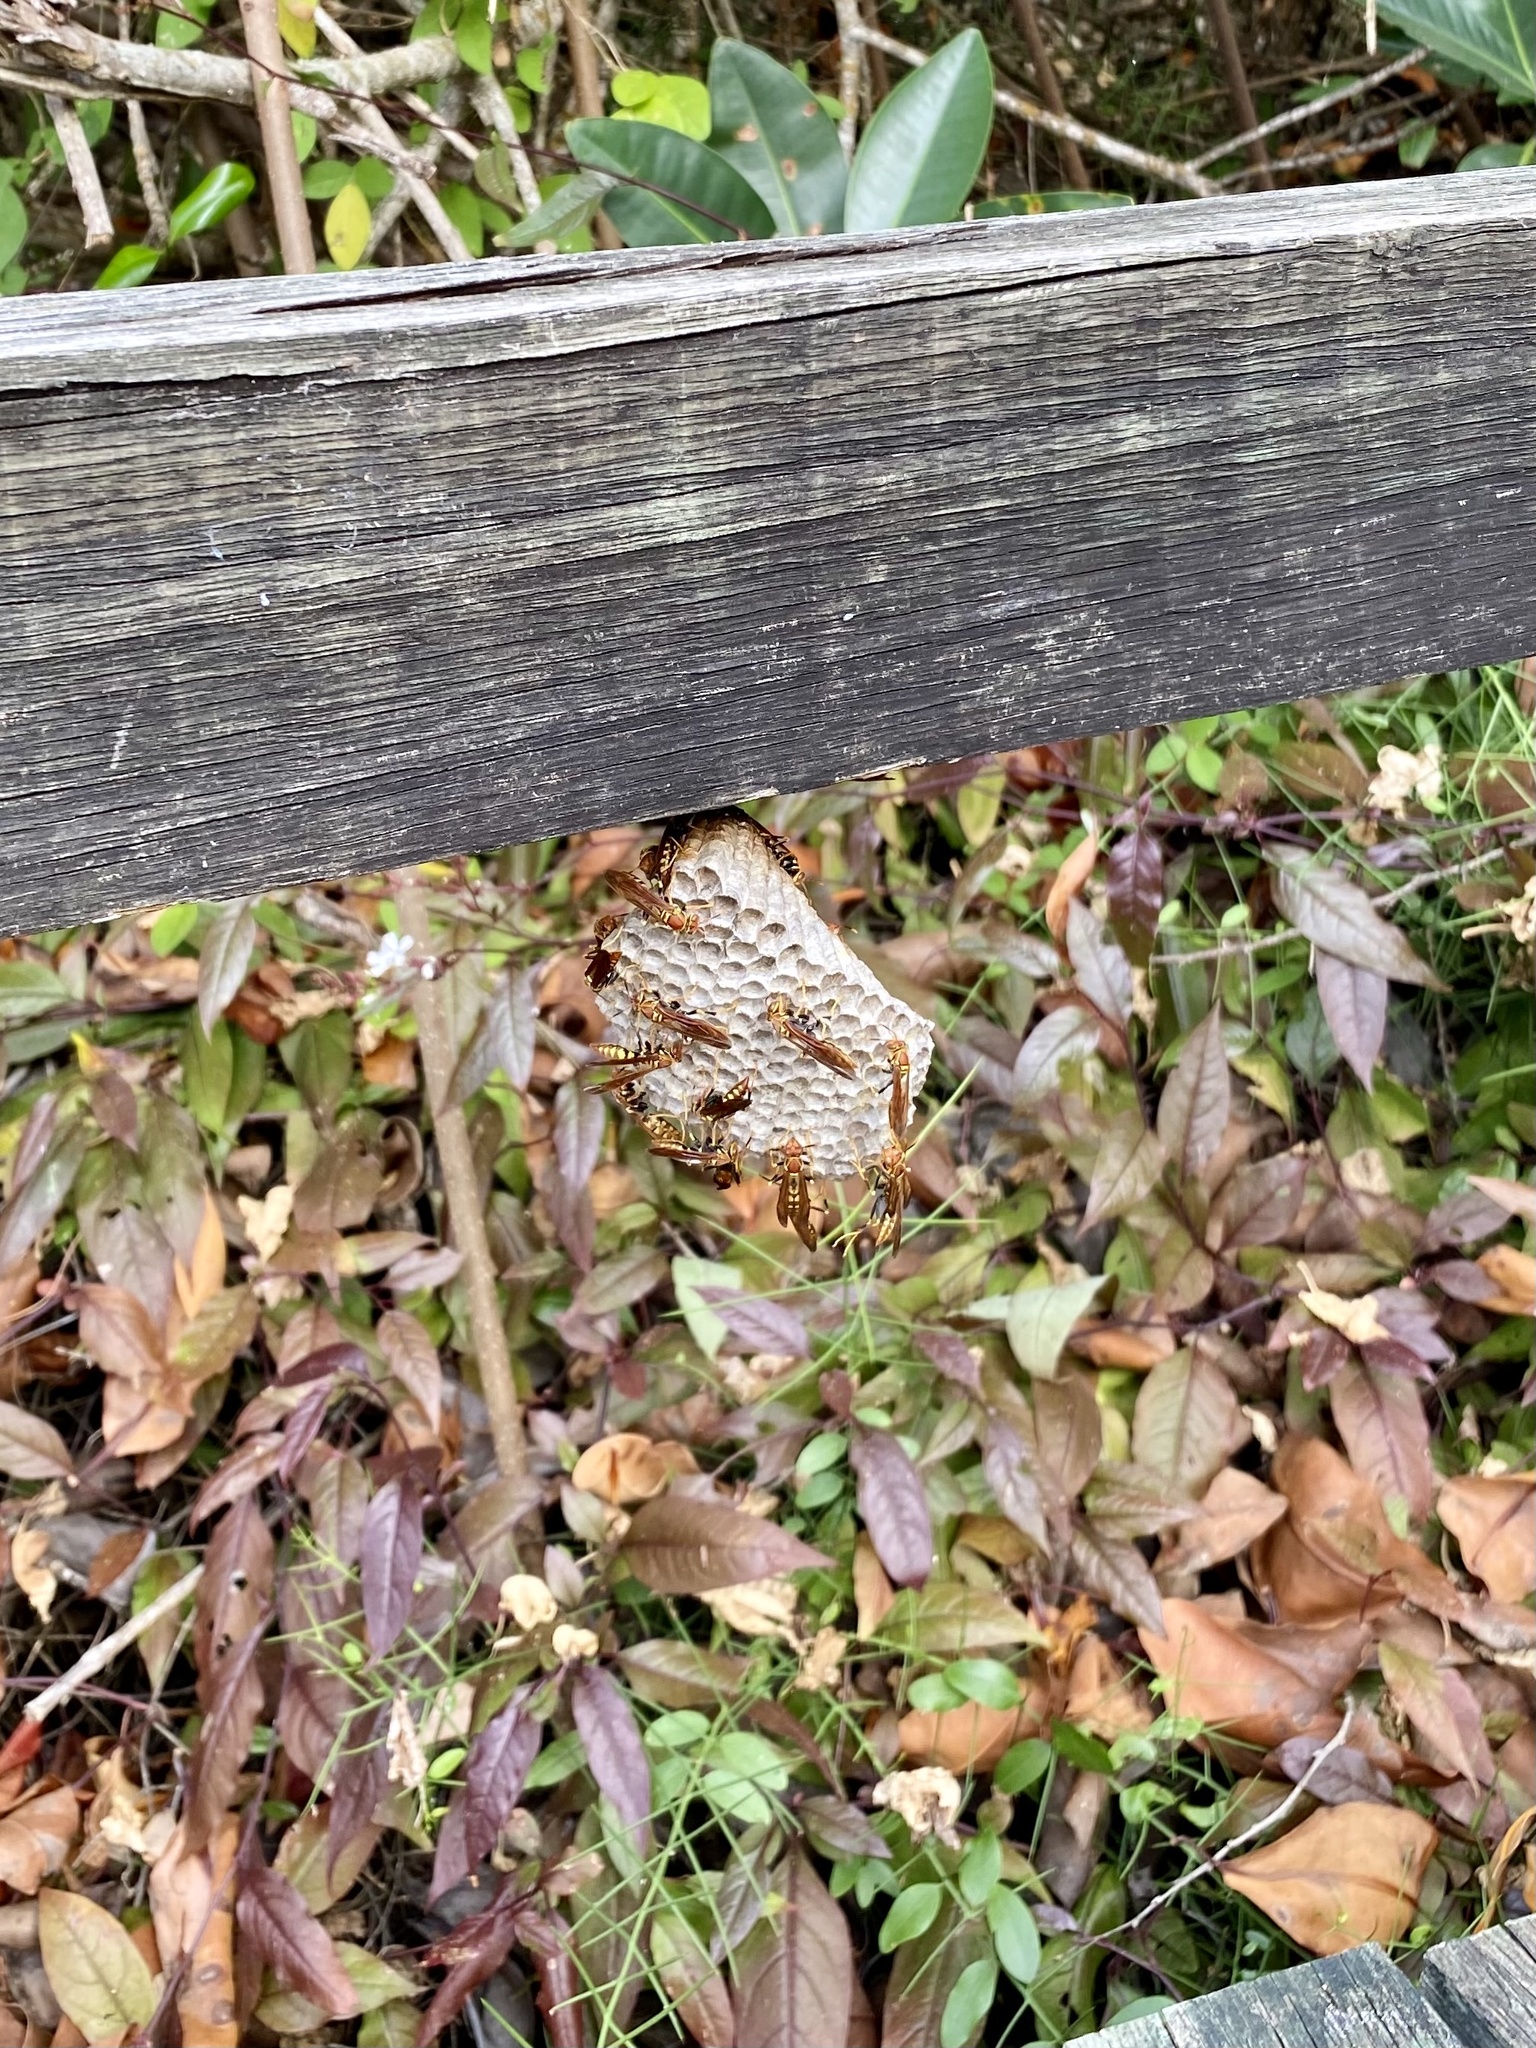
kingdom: Animalia
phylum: Arthropoda
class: Insecta
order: Hymenoptera
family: Eumenidae
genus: Polistes
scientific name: Polistes versicolor
